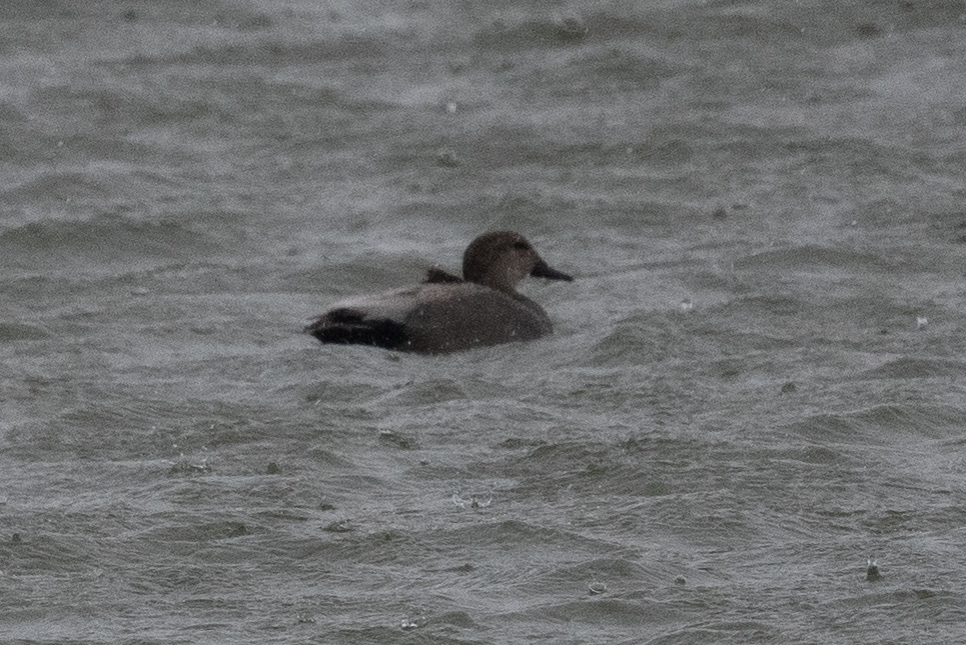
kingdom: Animalia
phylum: Chordata
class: Aves
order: Anseriformes
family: Anatidae
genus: Mareca
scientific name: Mareca strepera
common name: Gadwall
